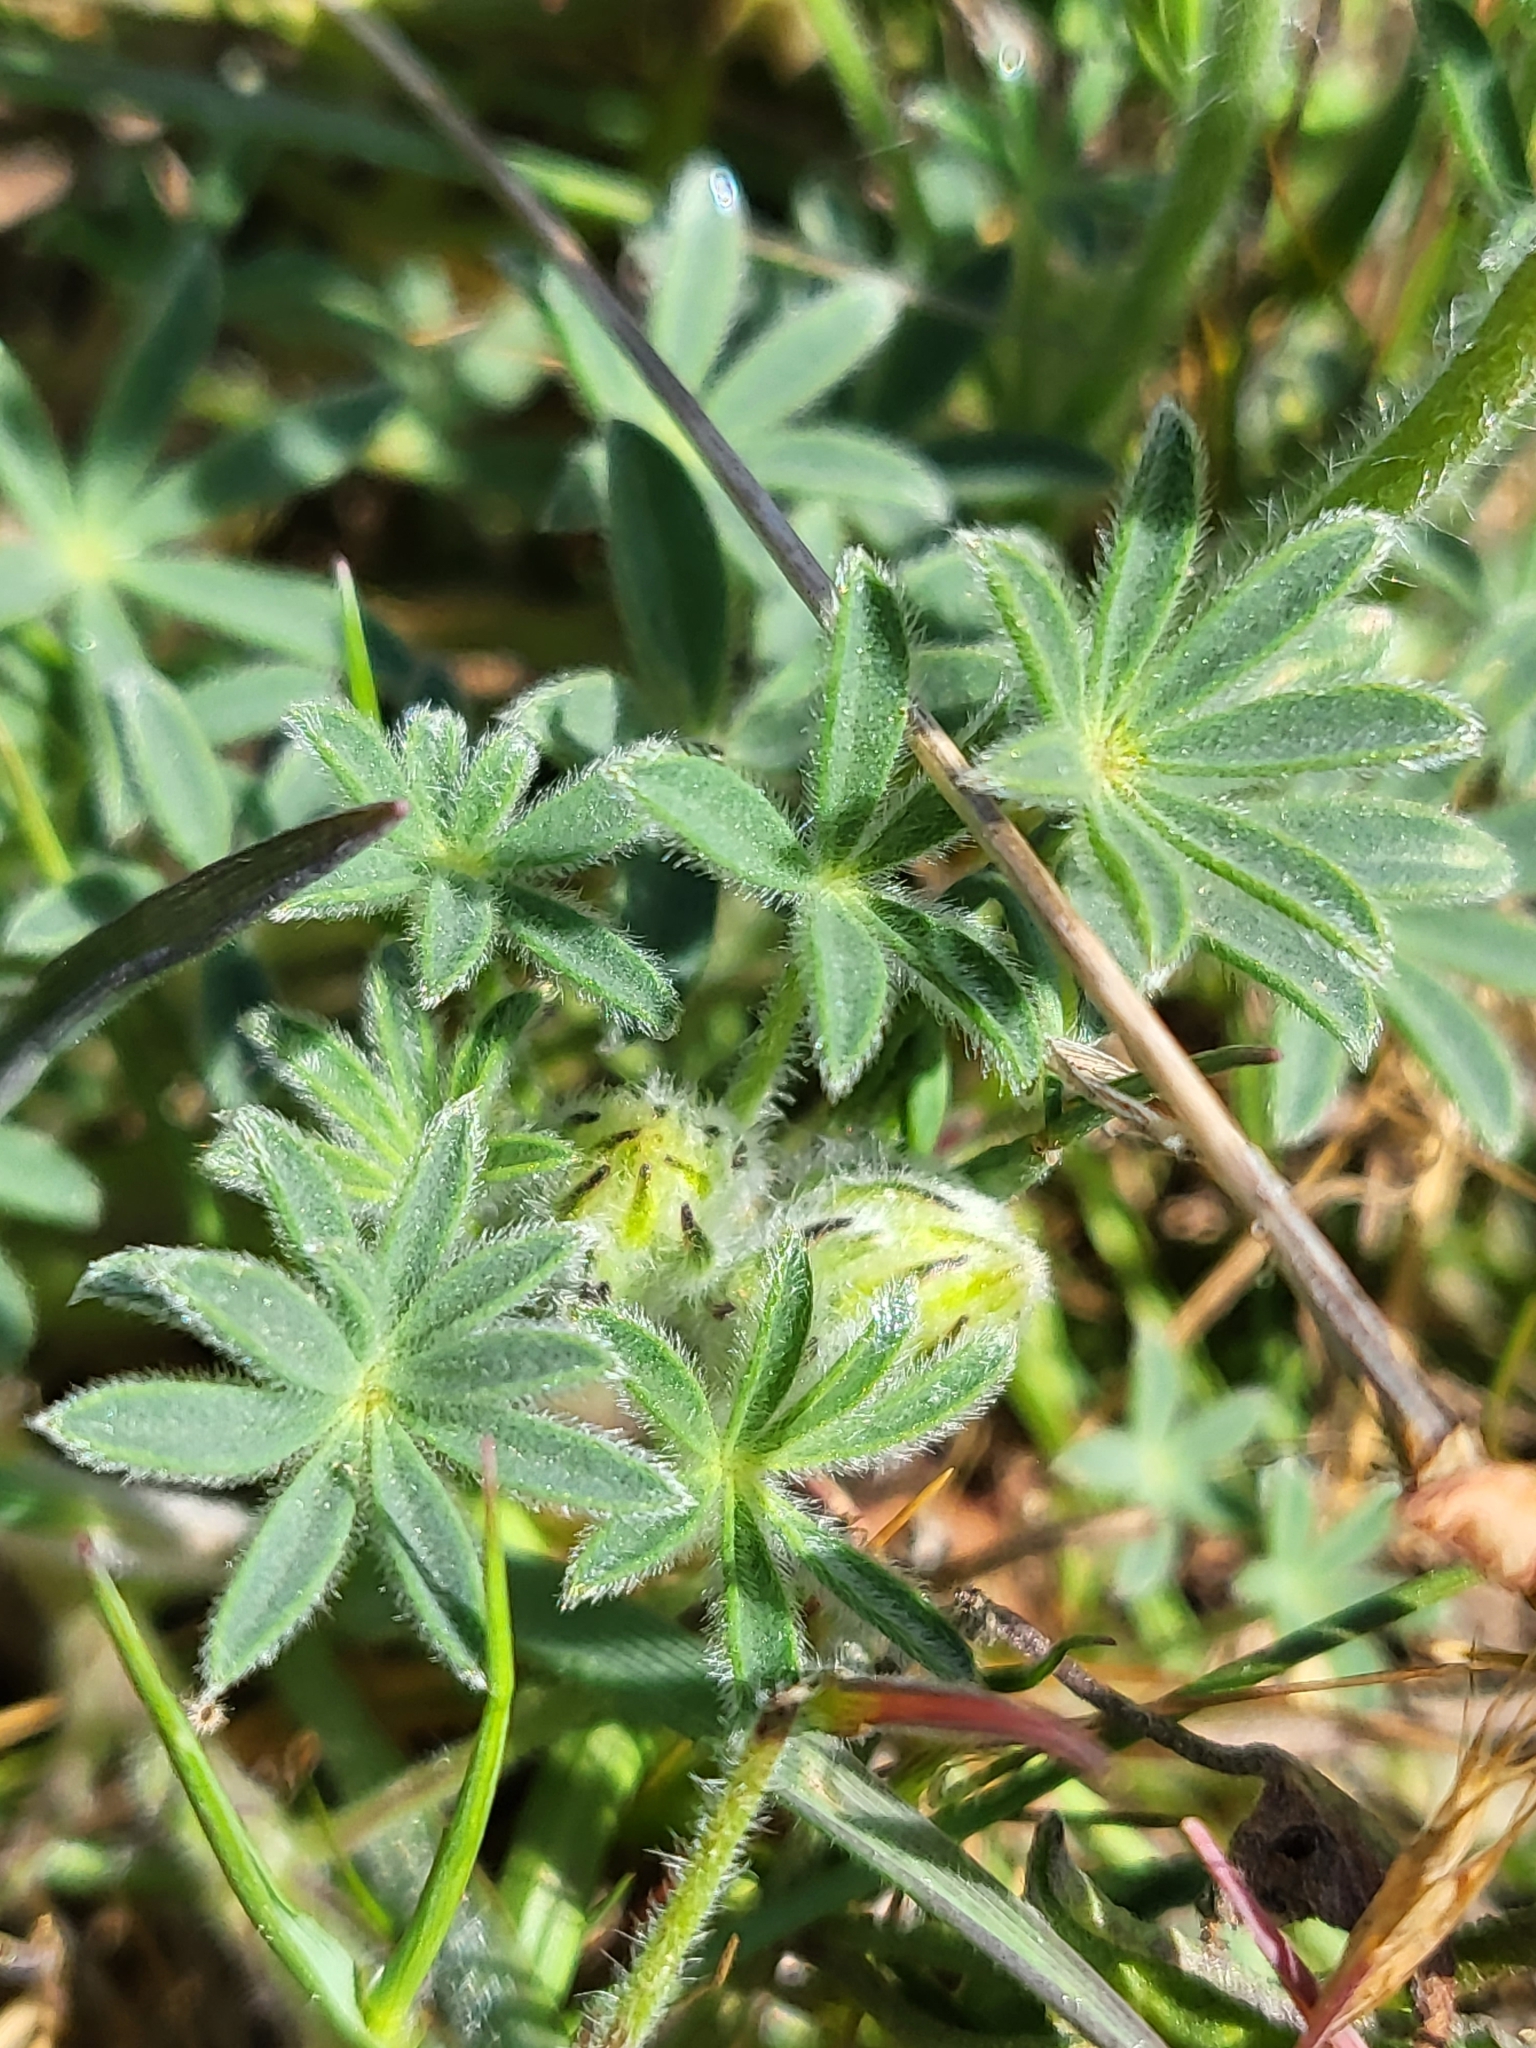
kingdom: Plantae
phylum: Tracheophyta
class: Magnoliopsida
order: Fabales
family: Fabaceae
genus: Lupinus
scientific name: Lupinus nanus
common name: Orean blue lupin
